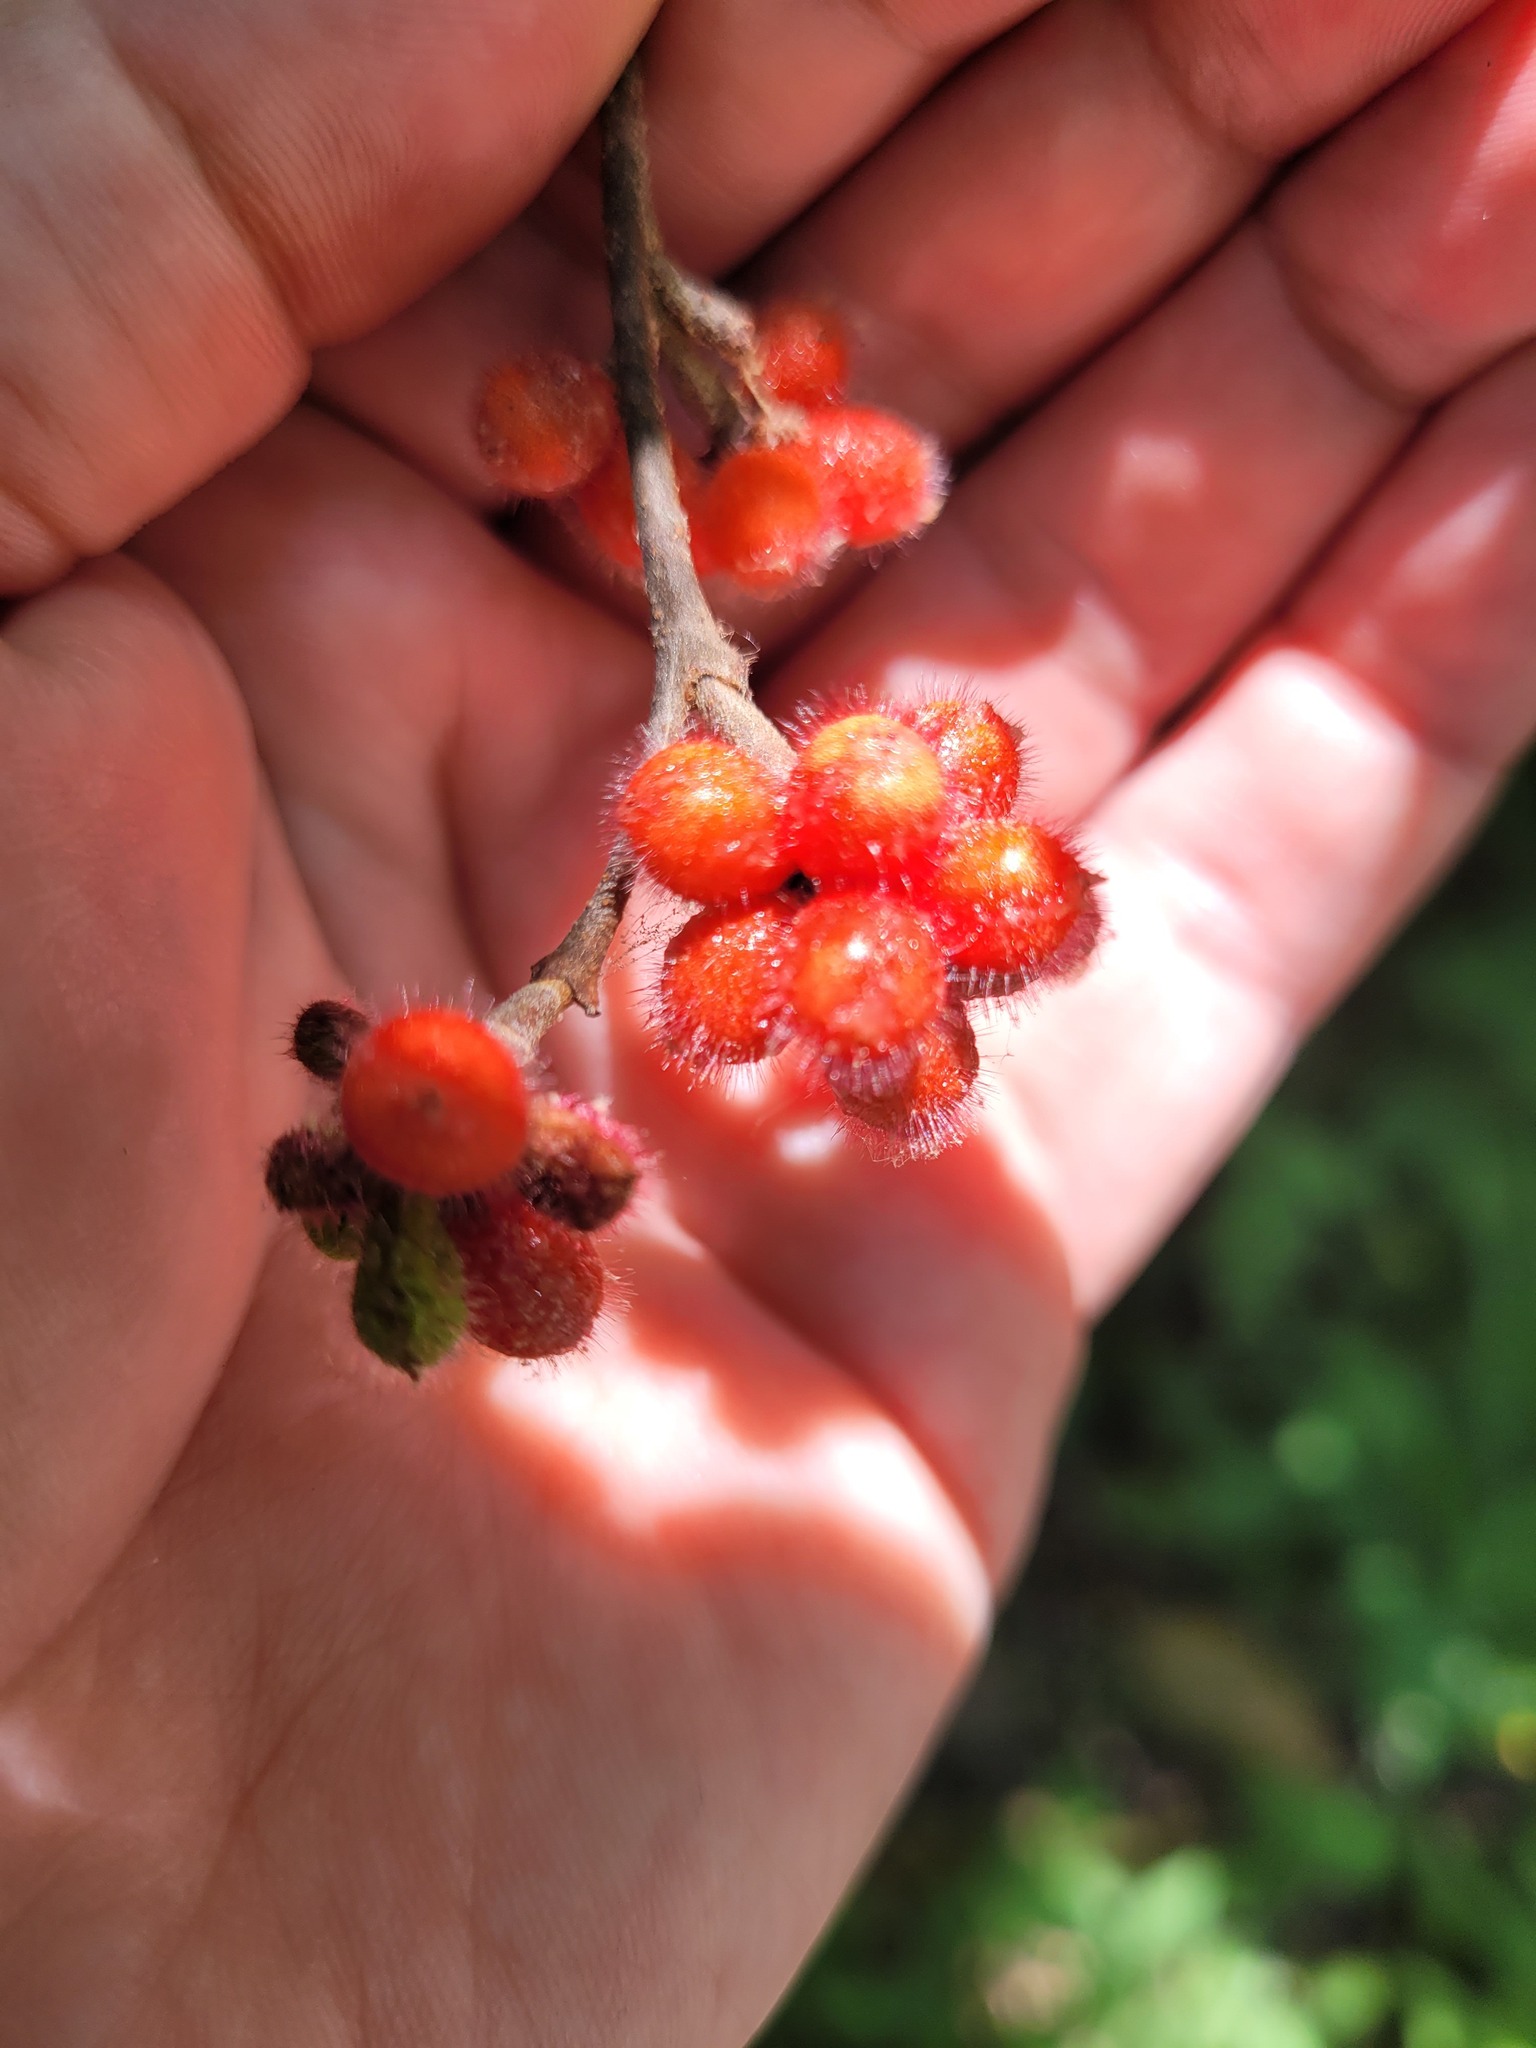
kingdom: Plantae
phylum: Tracheophyta
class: Magnoliopsida
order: Sapindales
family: Anacardiaceae
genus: Rhus
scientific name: Rhus aromatica
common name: Aromatic sumac
